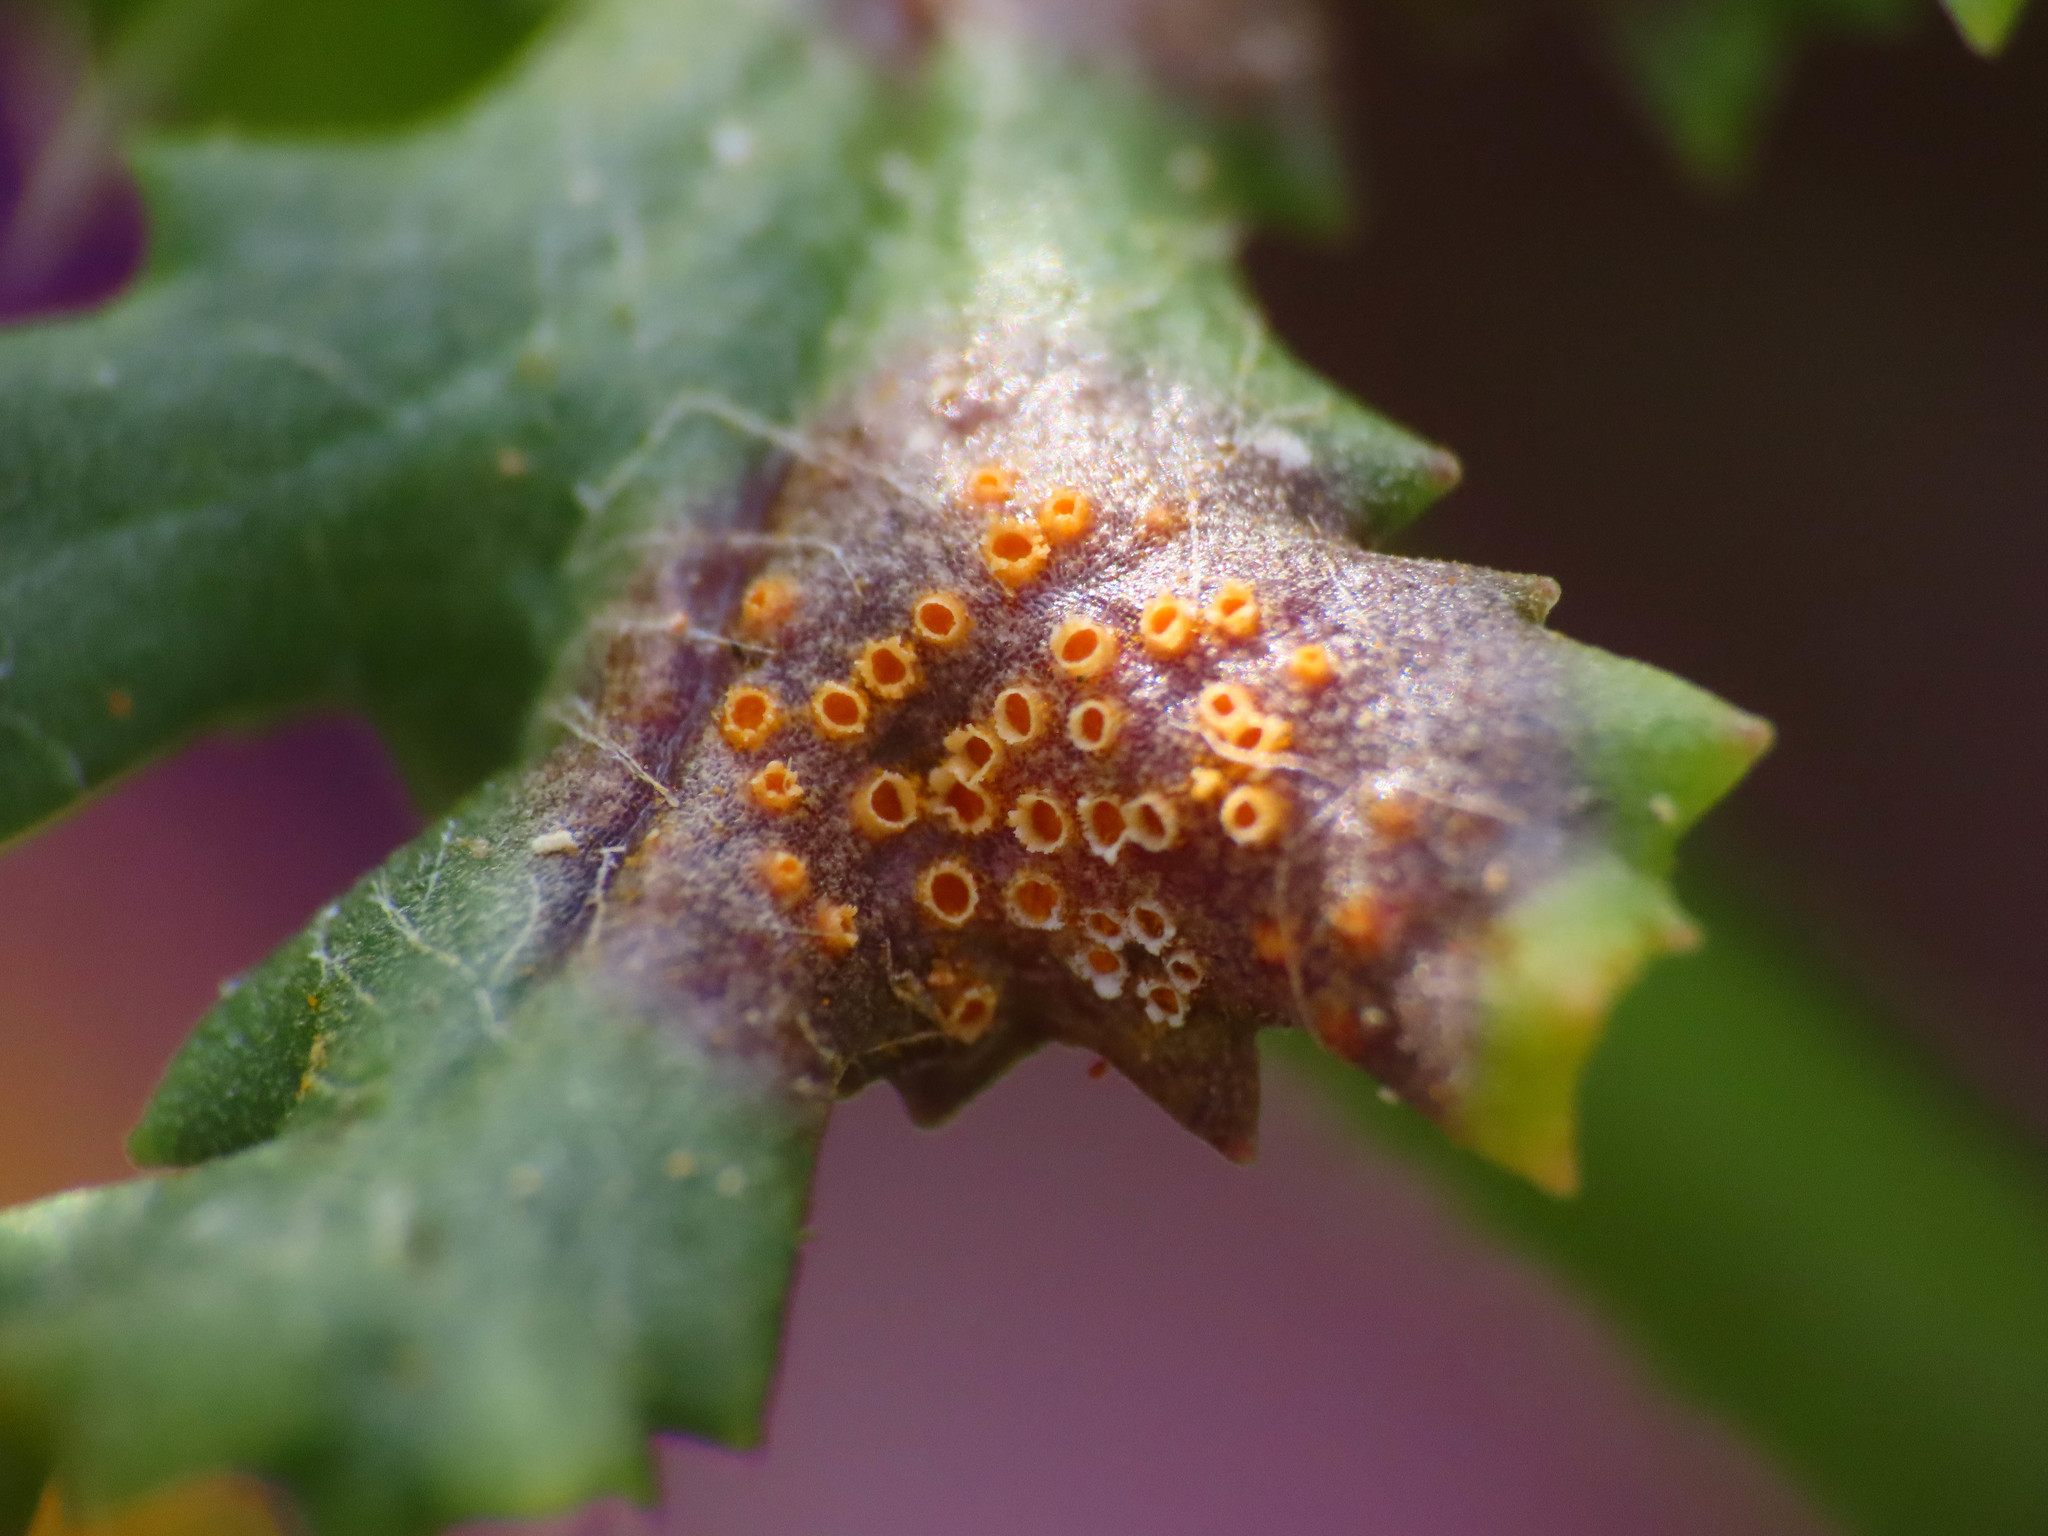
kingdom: Fungi
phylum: Basidiomycota
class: Pucciniomycetes
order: Pucciniales
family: Pucciniaceae
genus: Puccinia
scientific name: Puccinia lagenophorae
